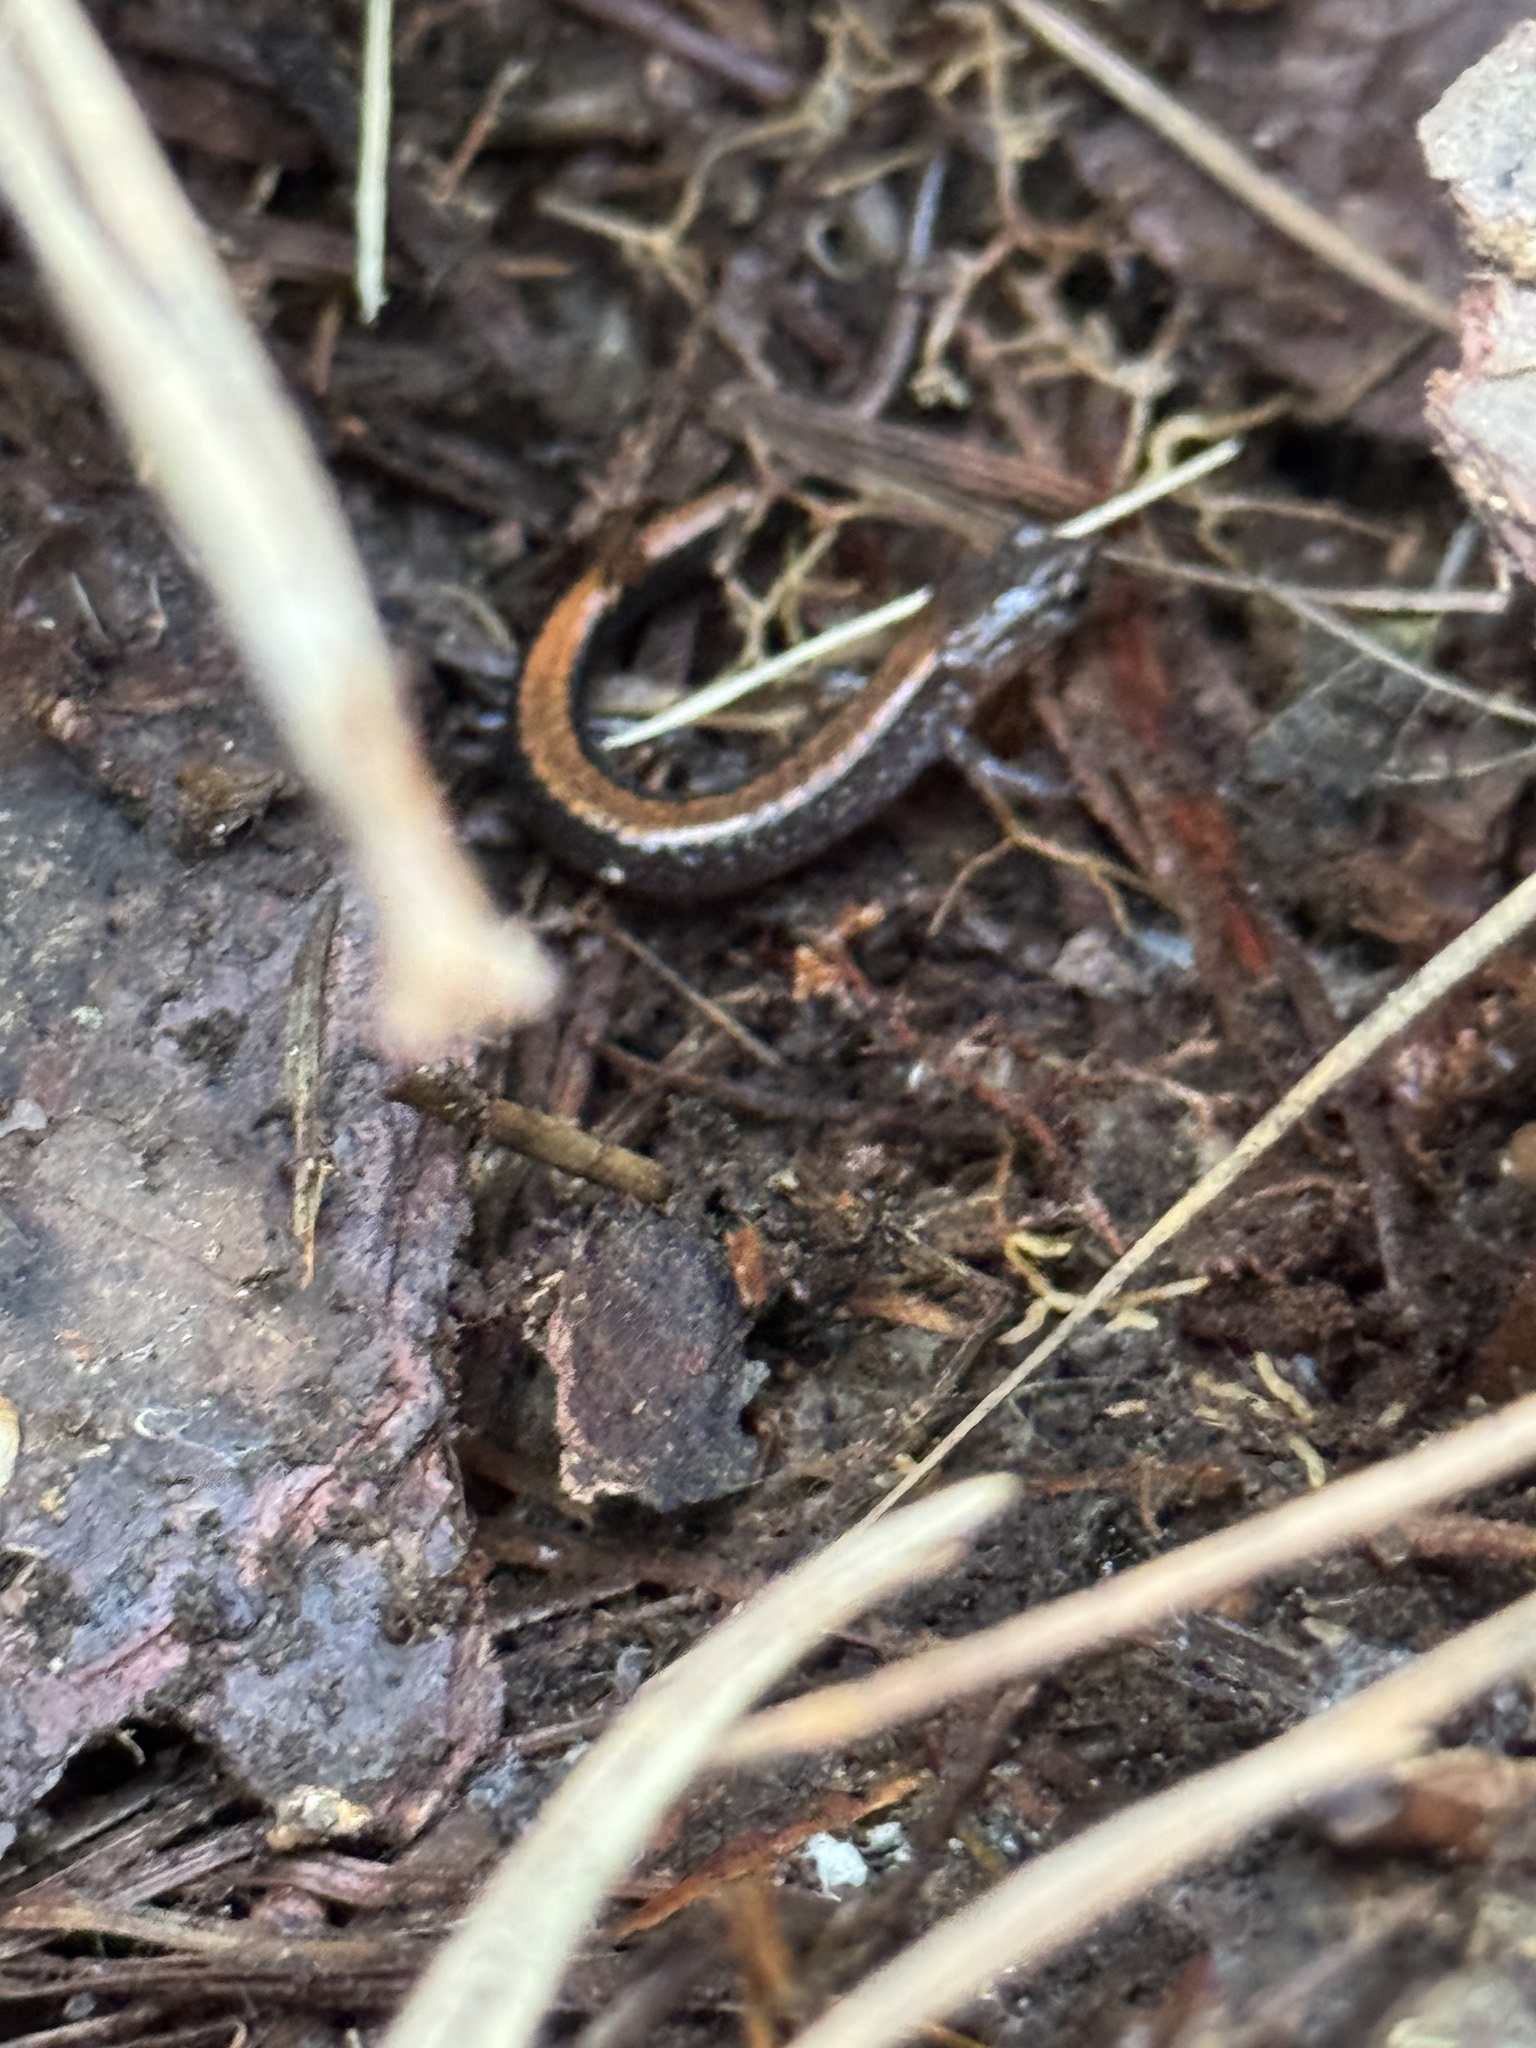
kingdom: Animalia
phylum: Chordata
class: Amphibia
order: Caudata
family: Plethodontidae
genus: Plethodon
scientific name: Plethodon cinereus
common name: Redback salamander
